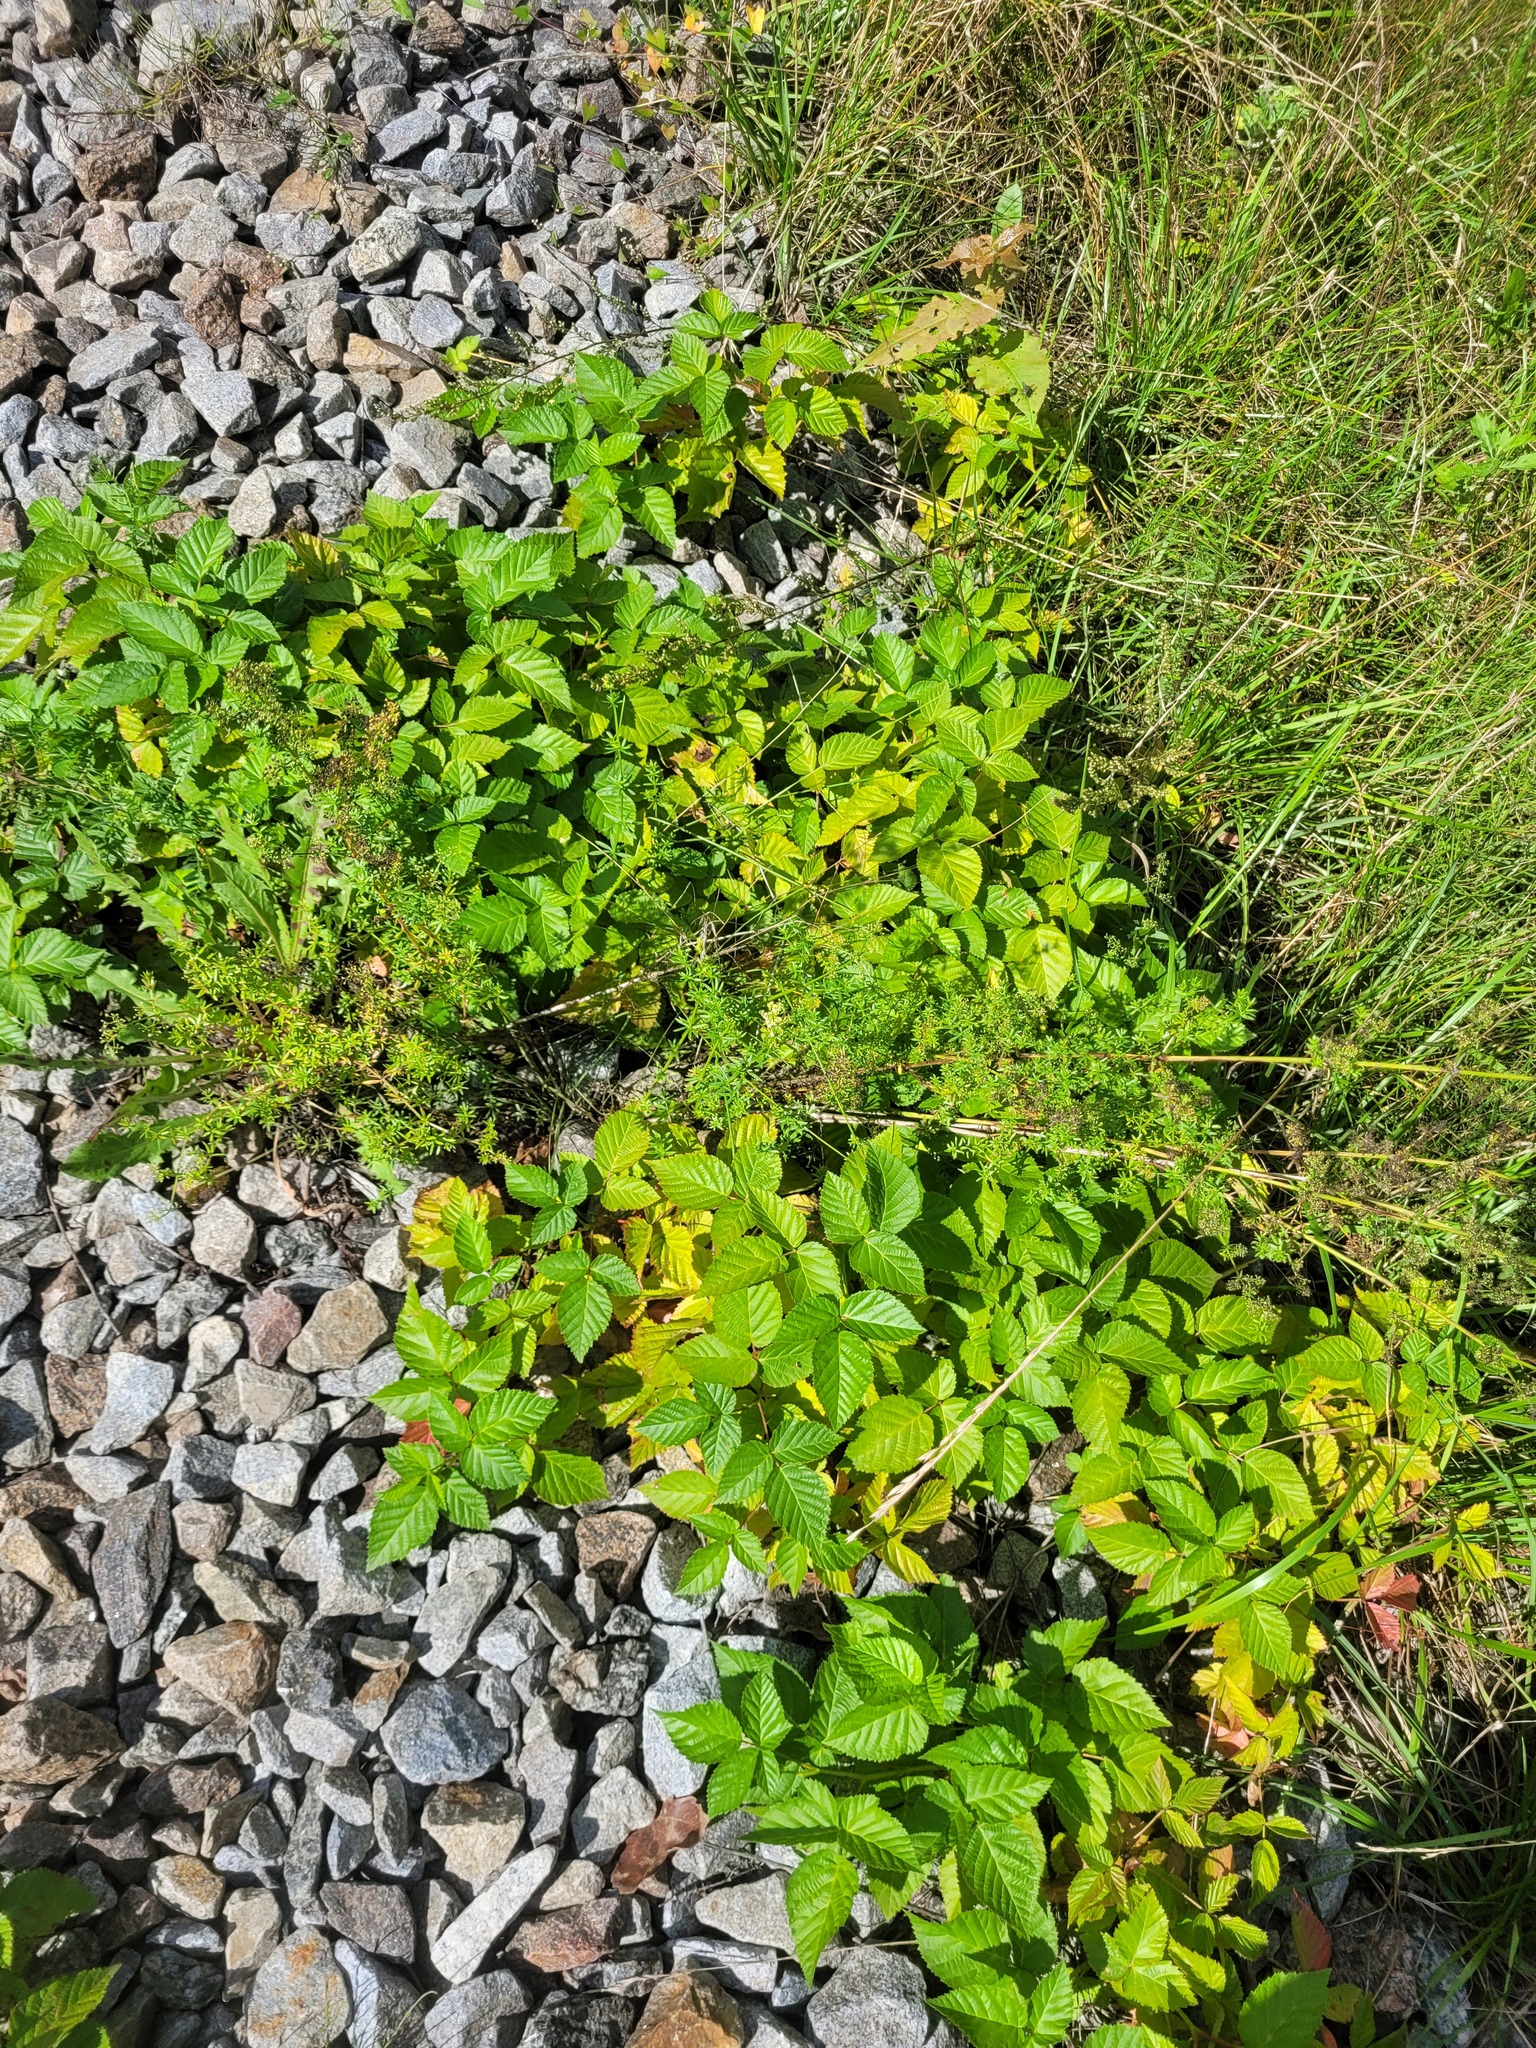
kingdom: Plantae
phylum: Tracheophyta
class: Magnoliopsida
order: Rosales
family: Rosaceae
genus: Rubus
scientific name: Rubus polonicus
